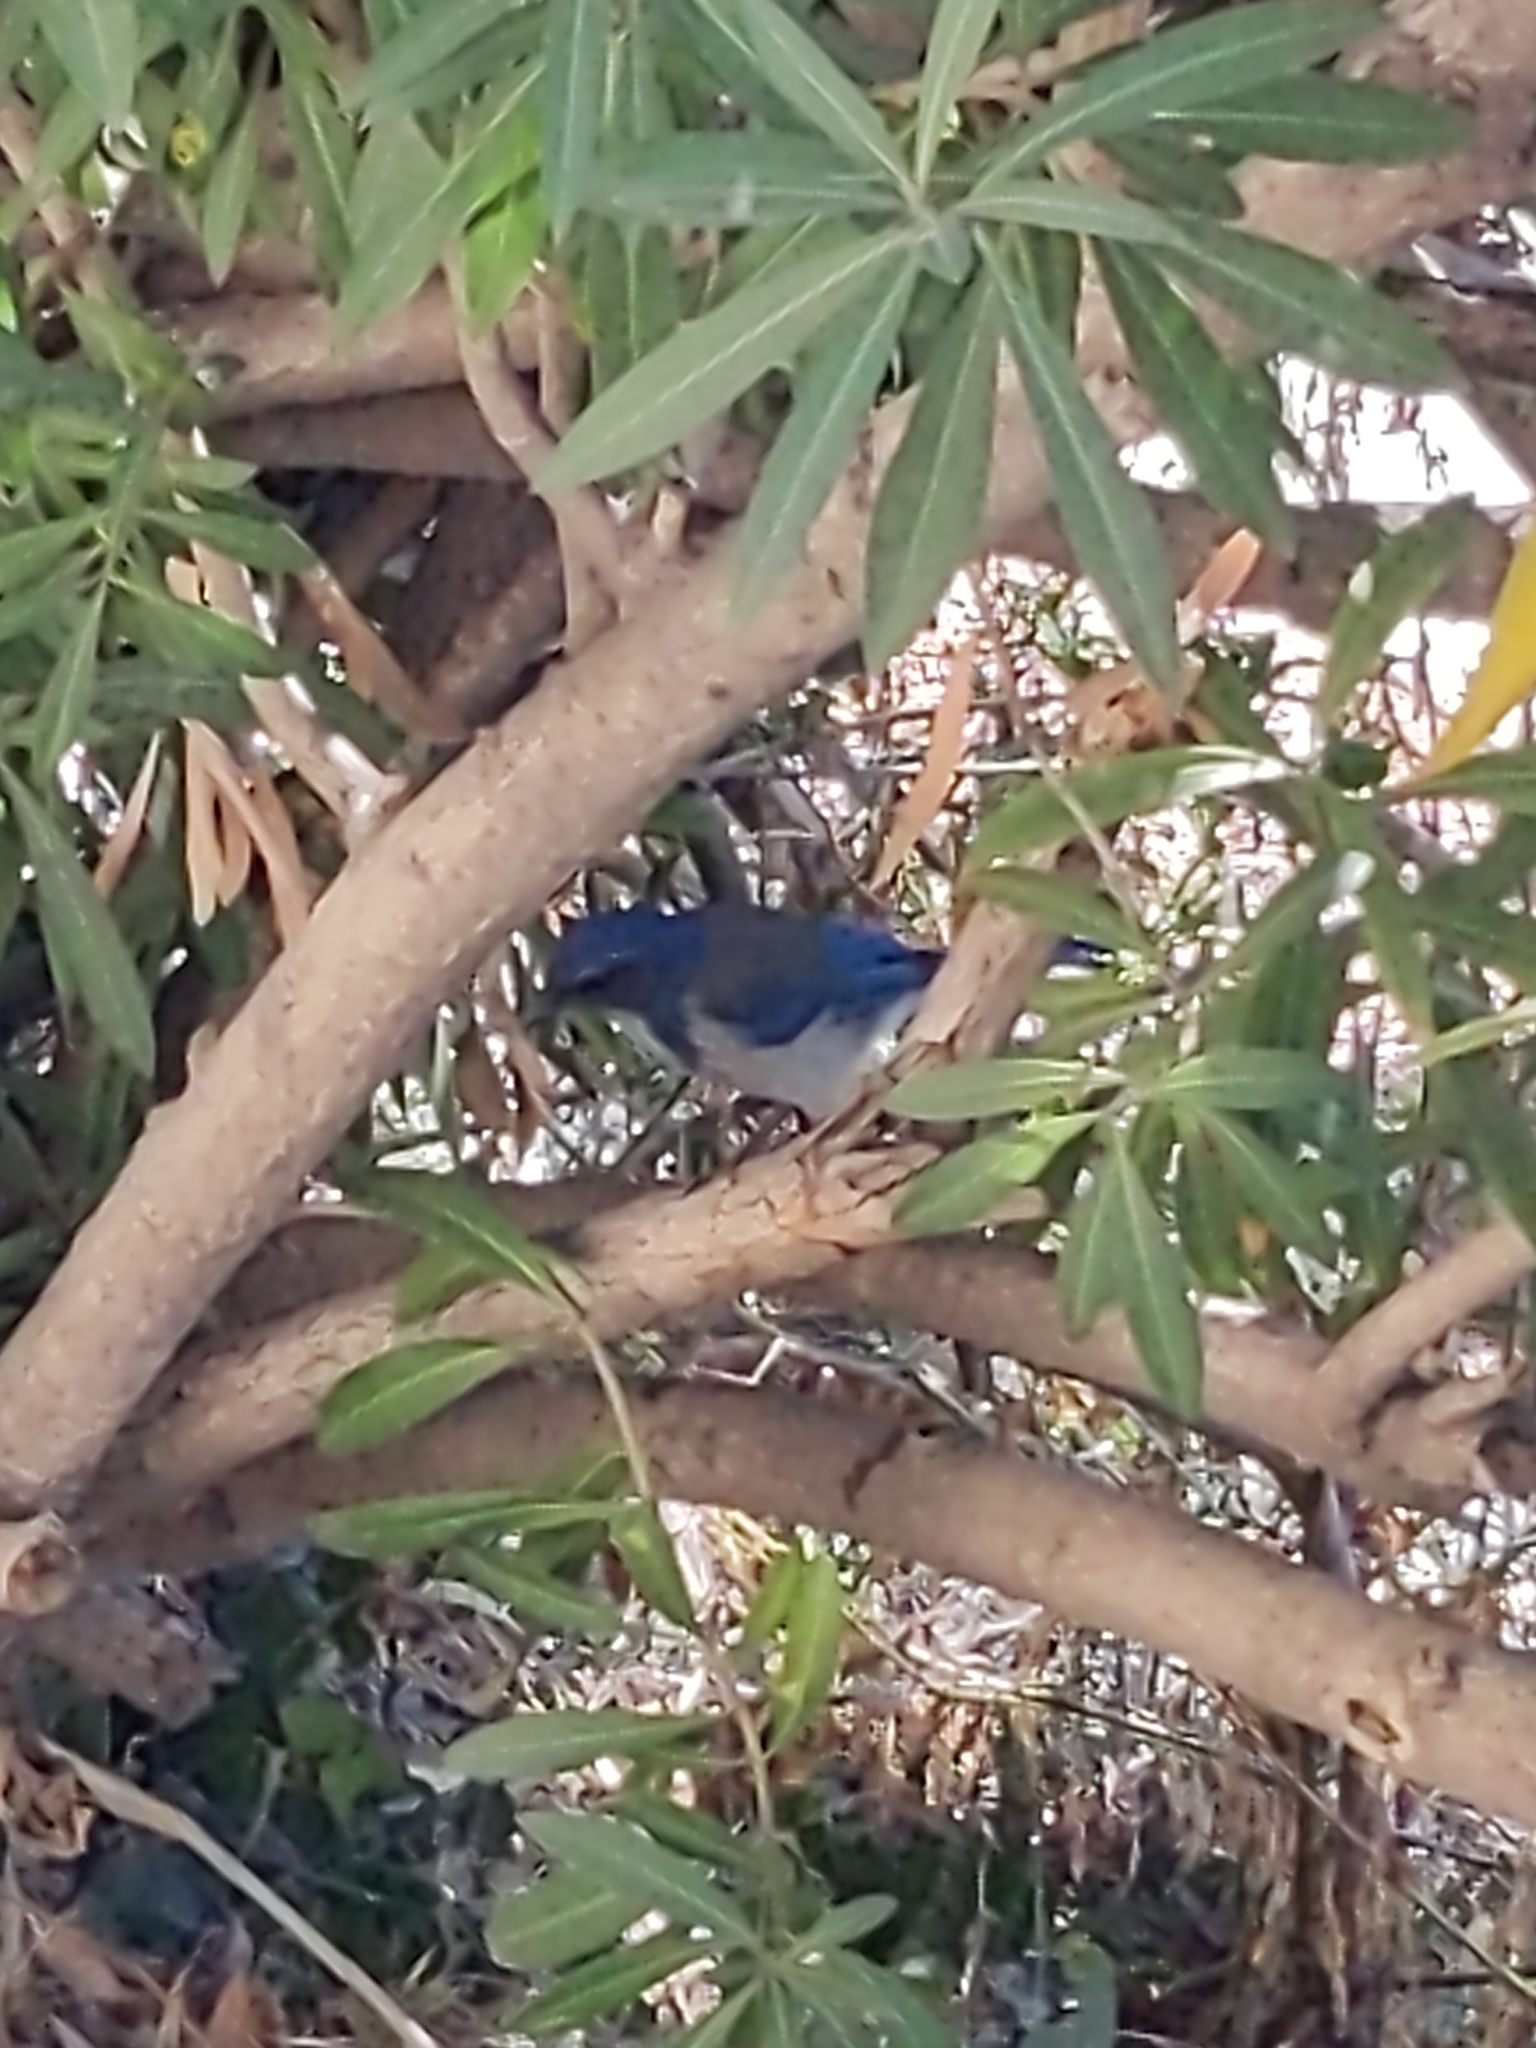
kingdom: Animalia
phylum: Chordata
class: Aves
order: Passeriformes
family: Corvidae
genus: Aphelocoma
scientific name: Aphelocoma californica
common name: California scrub-jay
